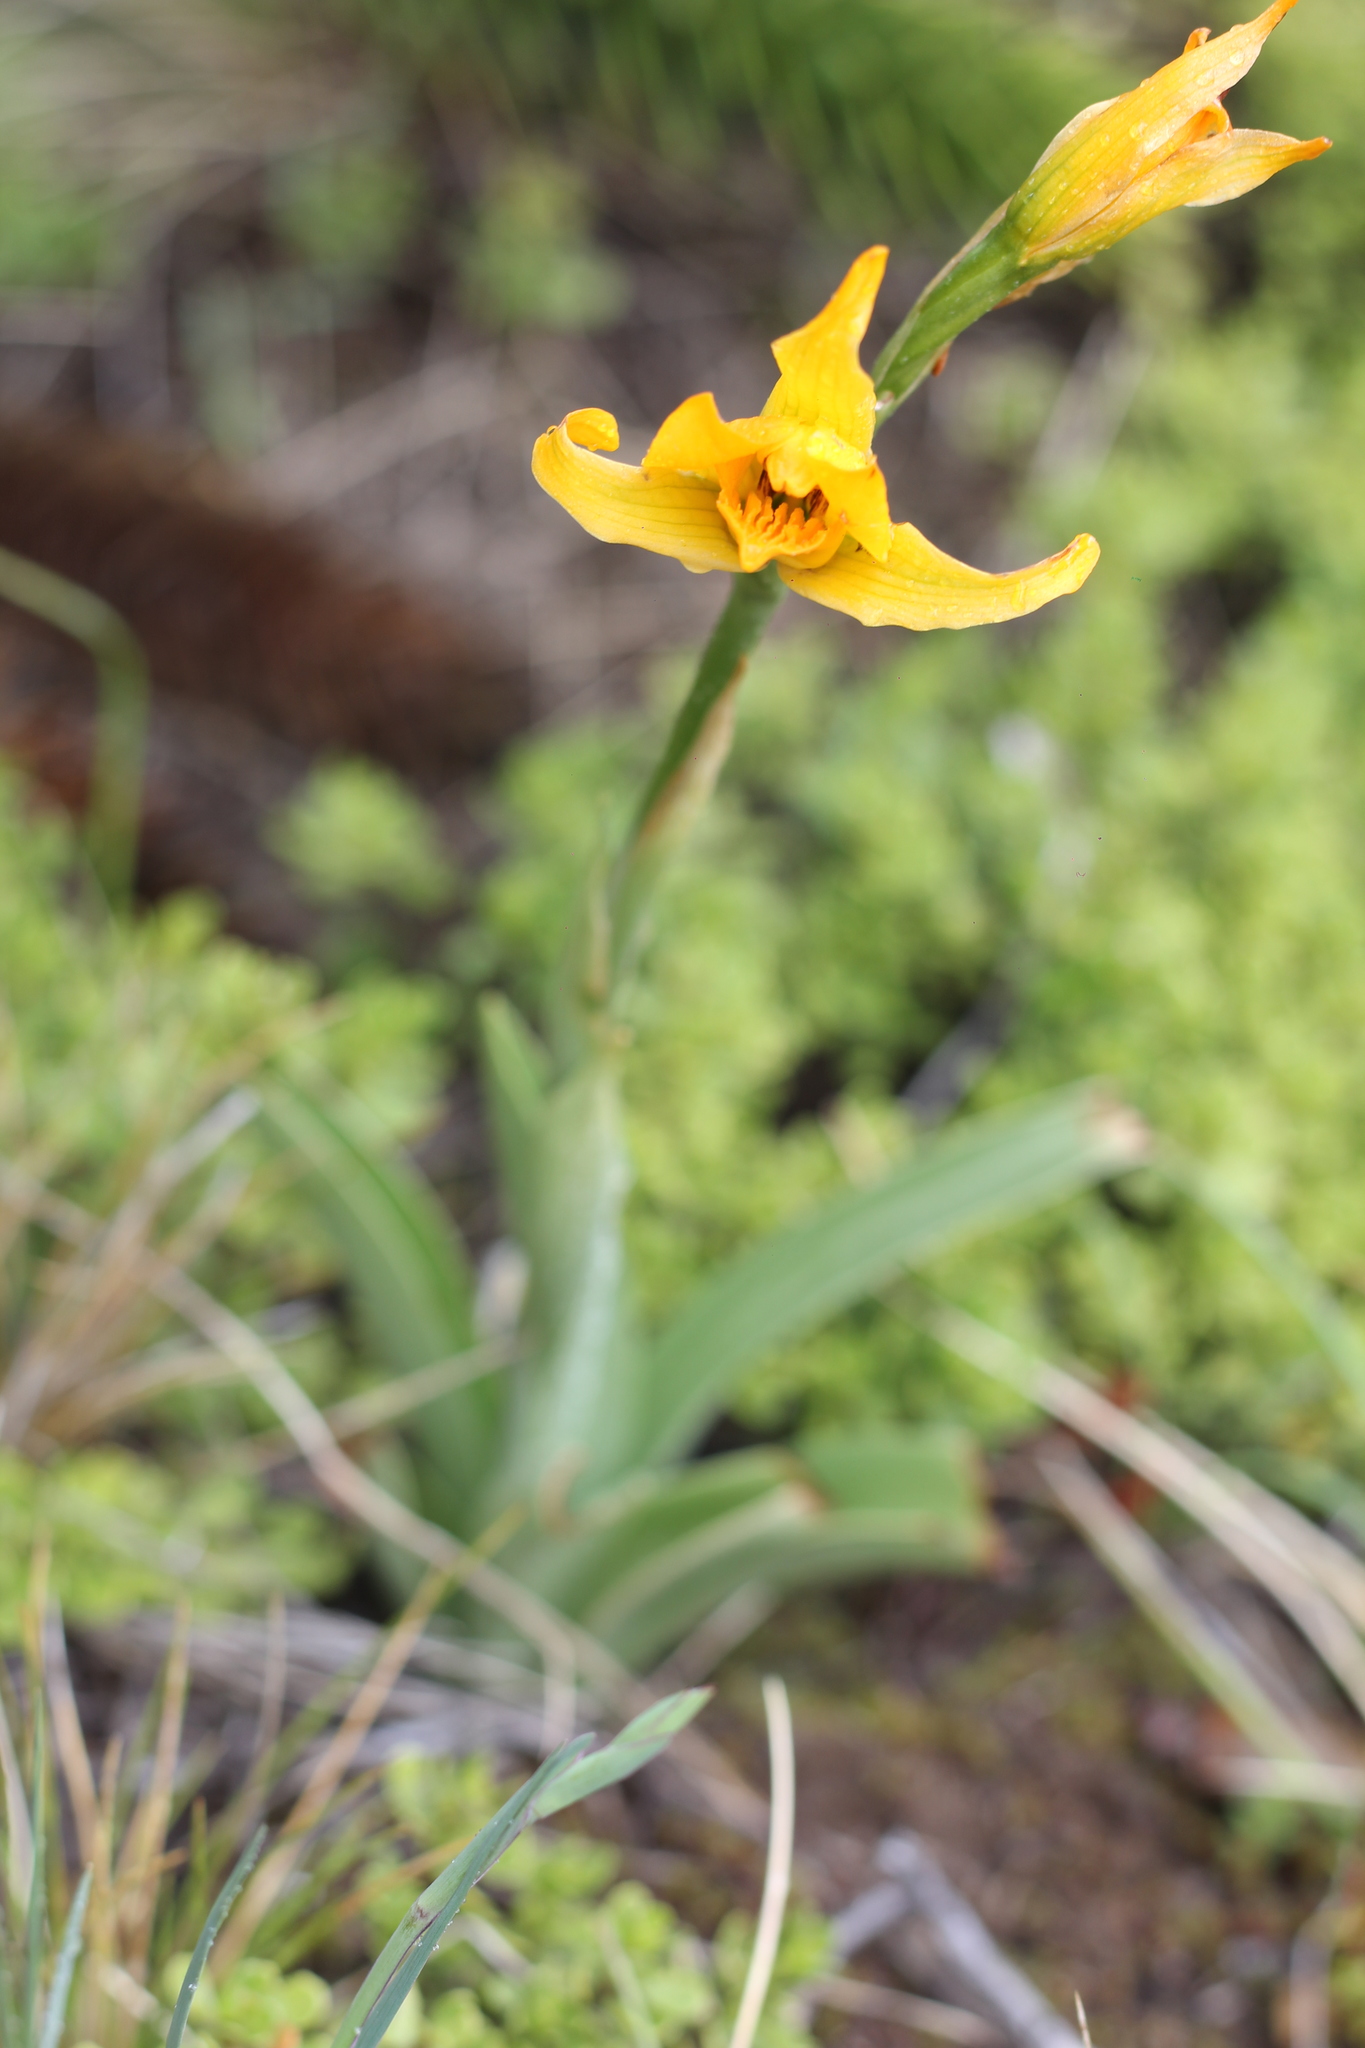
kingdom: Plantae
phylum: Tracheophyta
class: Liliopsida
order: Asparagales
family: Orchidaceae
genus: Chloraea
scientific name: Chloraea alpina
